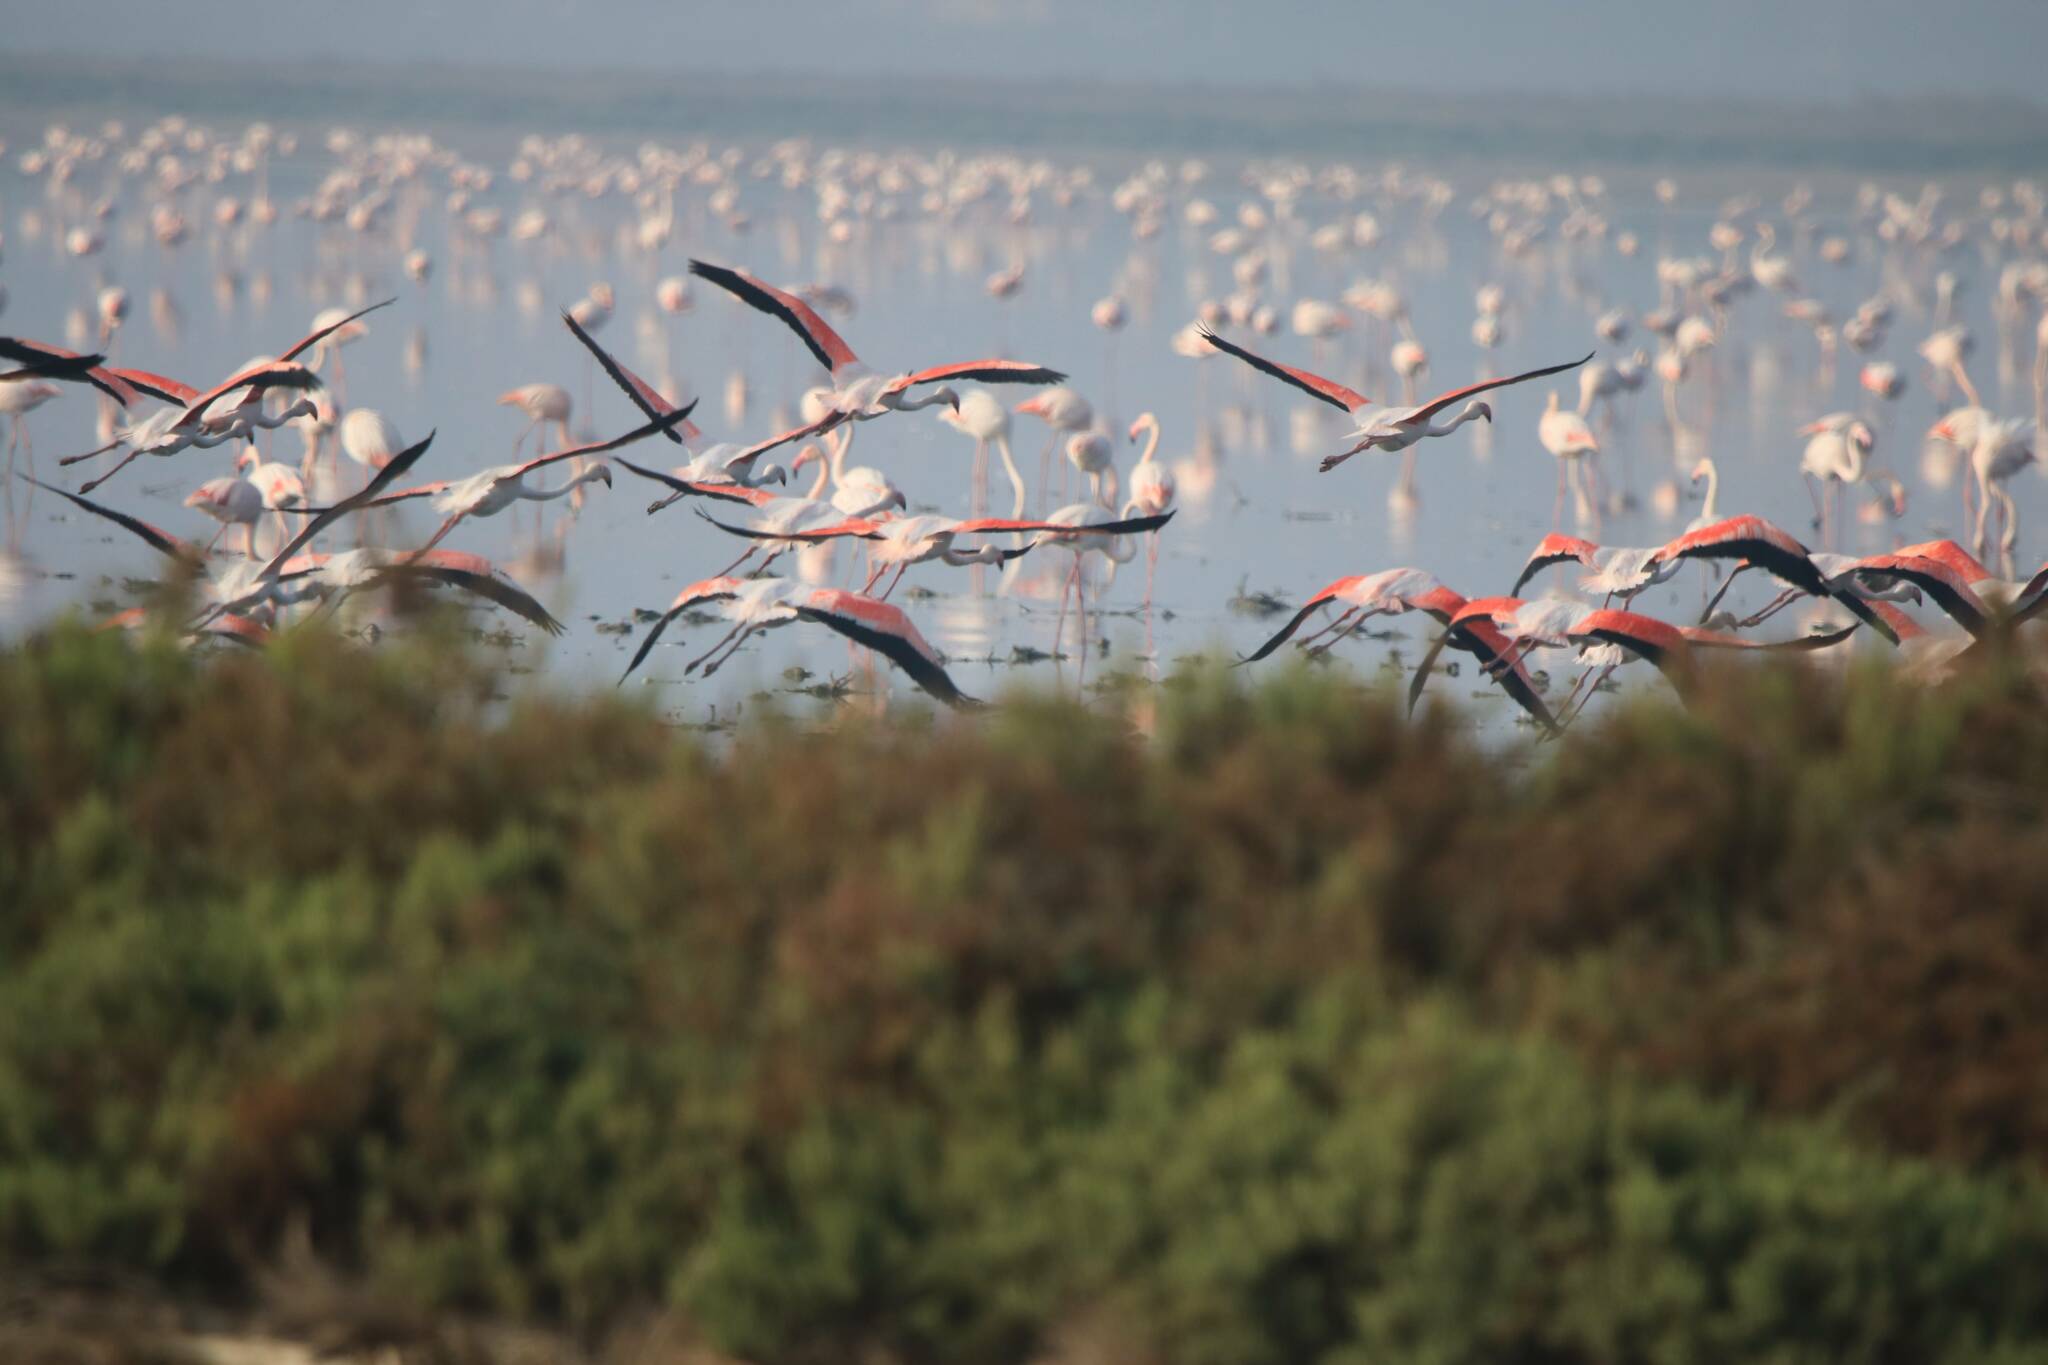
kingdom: Animalia
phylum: Chordata
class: Aves
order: Phoenicopteriformes
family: Phoenicopteridae
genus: Phoenicopterus
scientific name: Phoenicopterus roseus
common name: Greater flamingo
